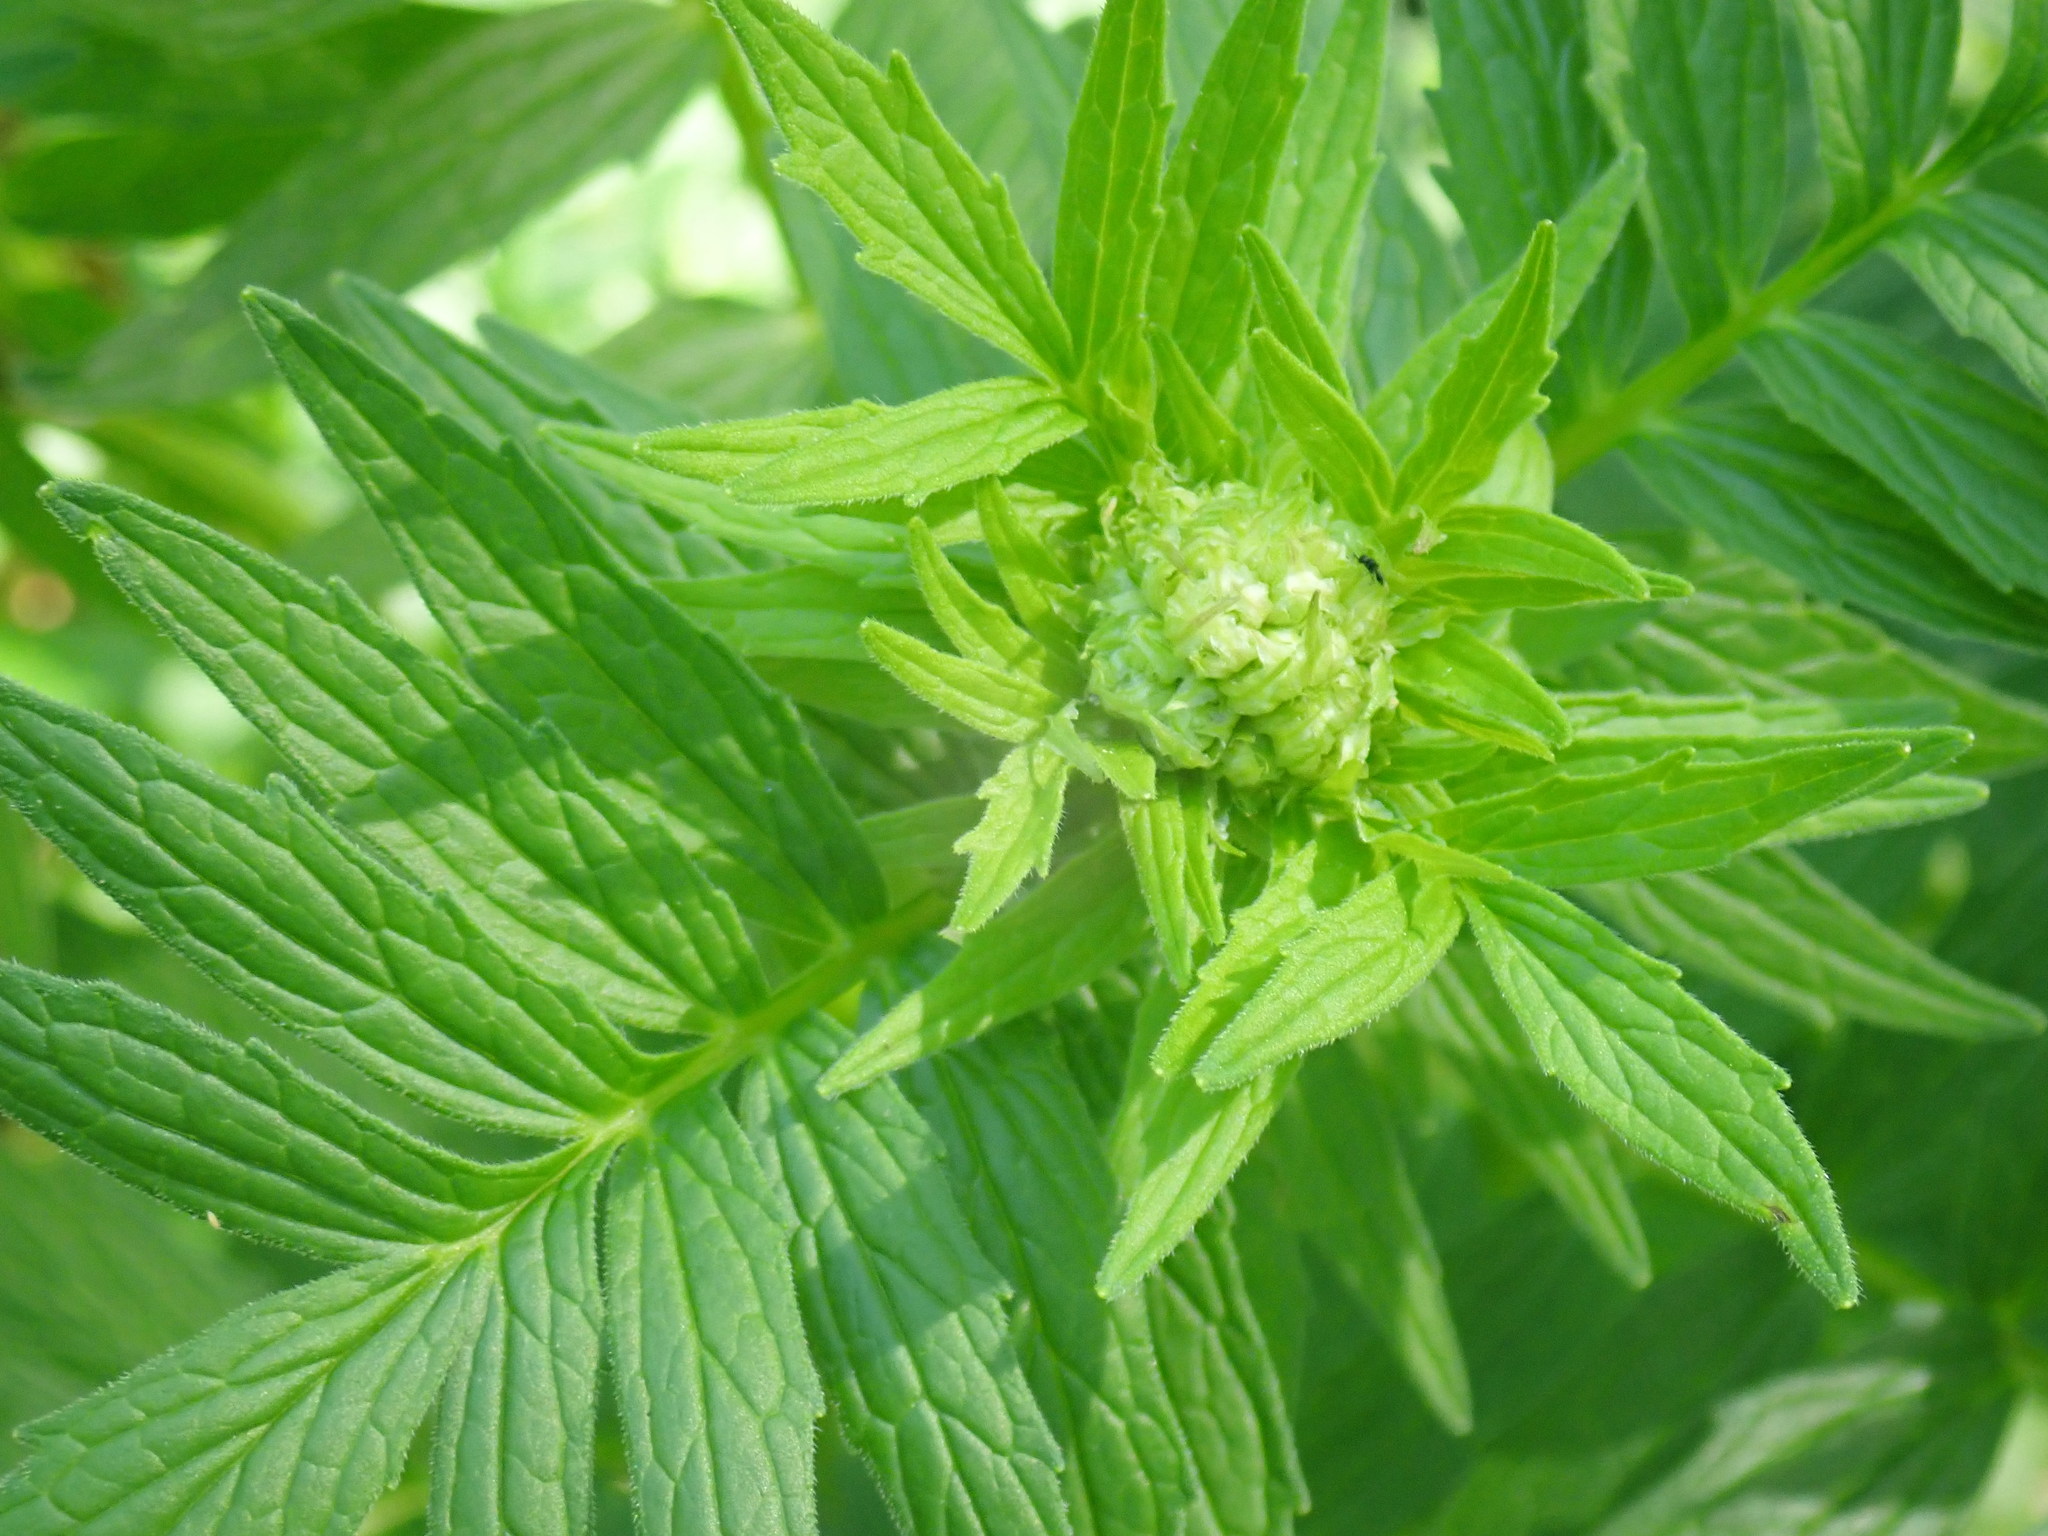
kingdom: Plantae
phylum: Tracheophyta
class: Magnoliopsida
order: Dipsacales
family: Caprifoliaceae
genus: Valeriana
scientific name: Valeriana officinalis
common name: Common valerian
